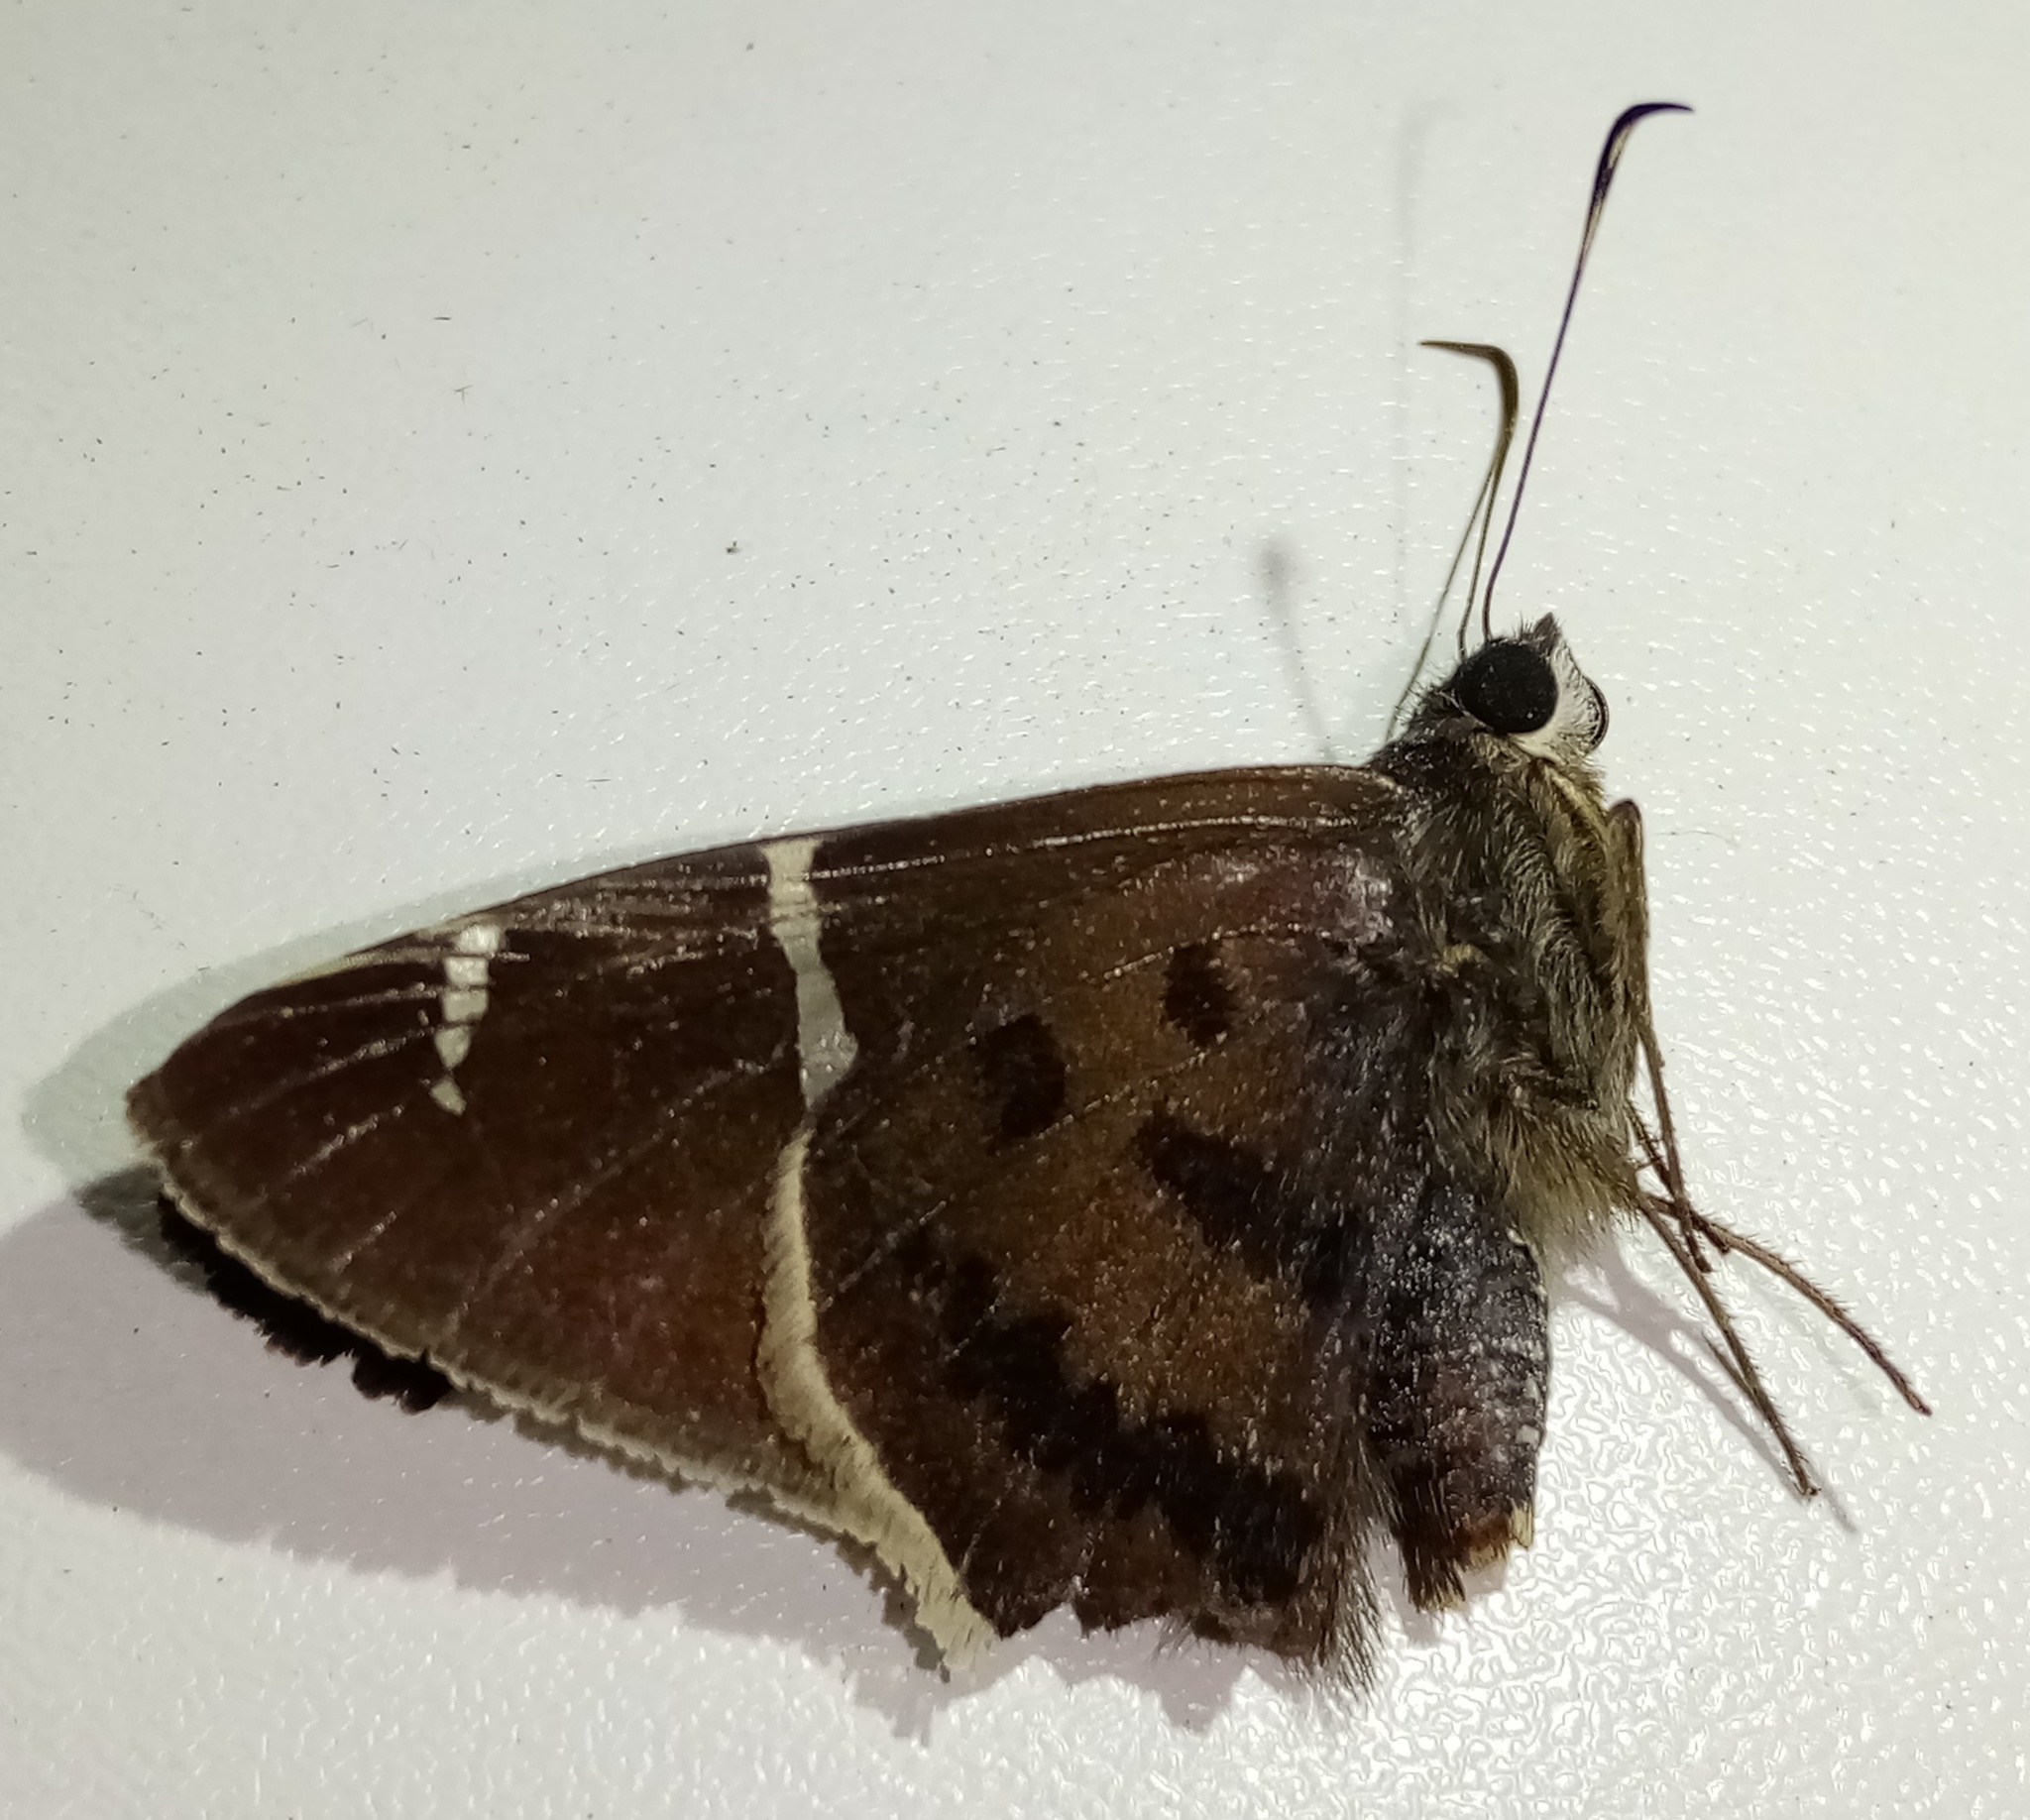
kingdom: Animalia
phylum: Arthropoda
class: Insecta
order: Lepidoptera
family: Hesperiidae
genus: Urbanus
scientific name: Urbanus teleus
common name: Teleus longtail
